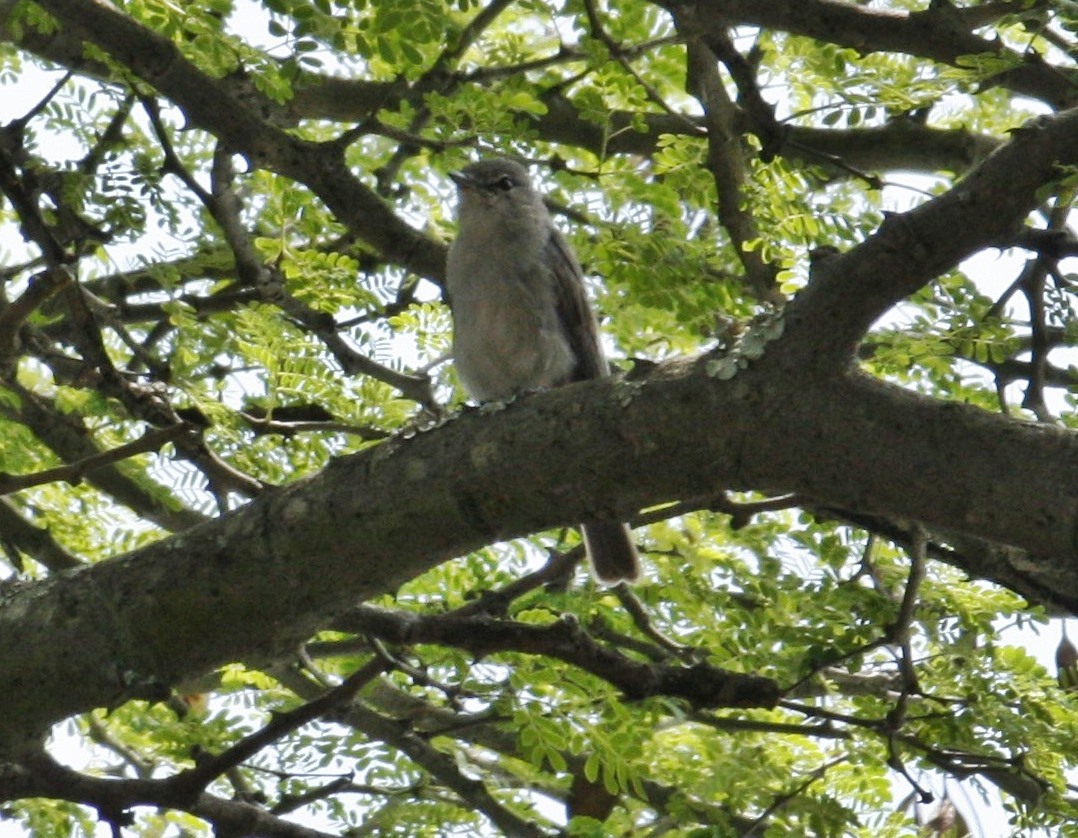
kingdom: Animalia
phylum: Chordata
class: Aves
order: Passeriformes
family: Muscicapidae
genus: Muscicapa
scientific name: Muscicapa caerulescens
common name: Ashy flycatcher
